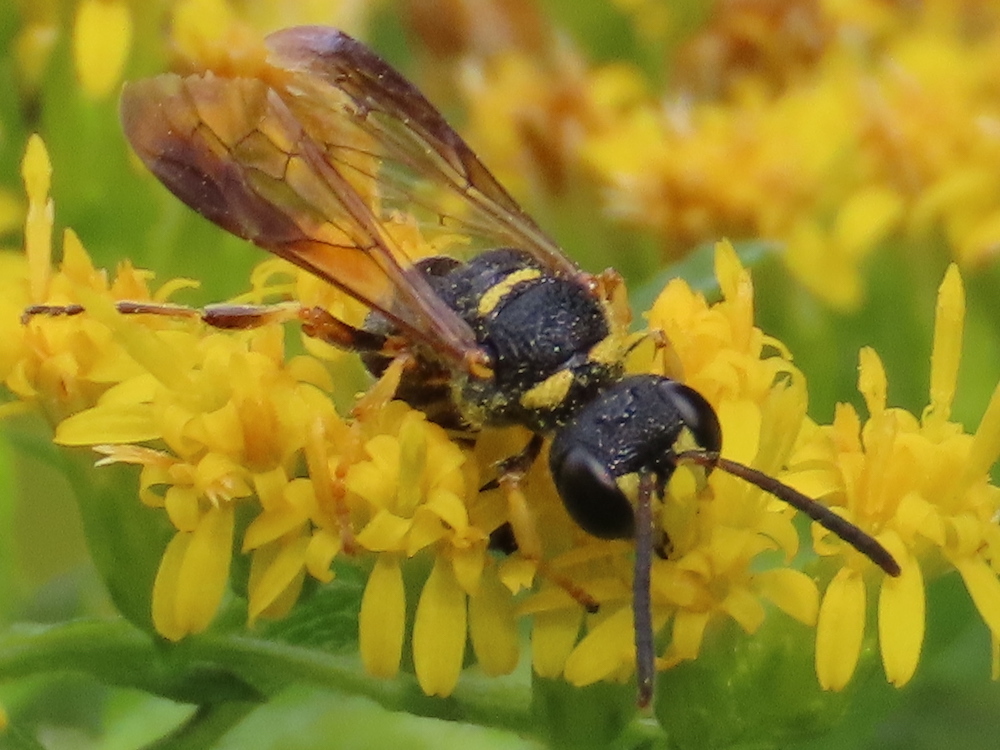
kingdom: Animalia
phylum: Arthropoda
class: Insecta
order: Hymenoptera
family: Crabronidae
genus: Cerceris
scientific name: Cerceris insolita
